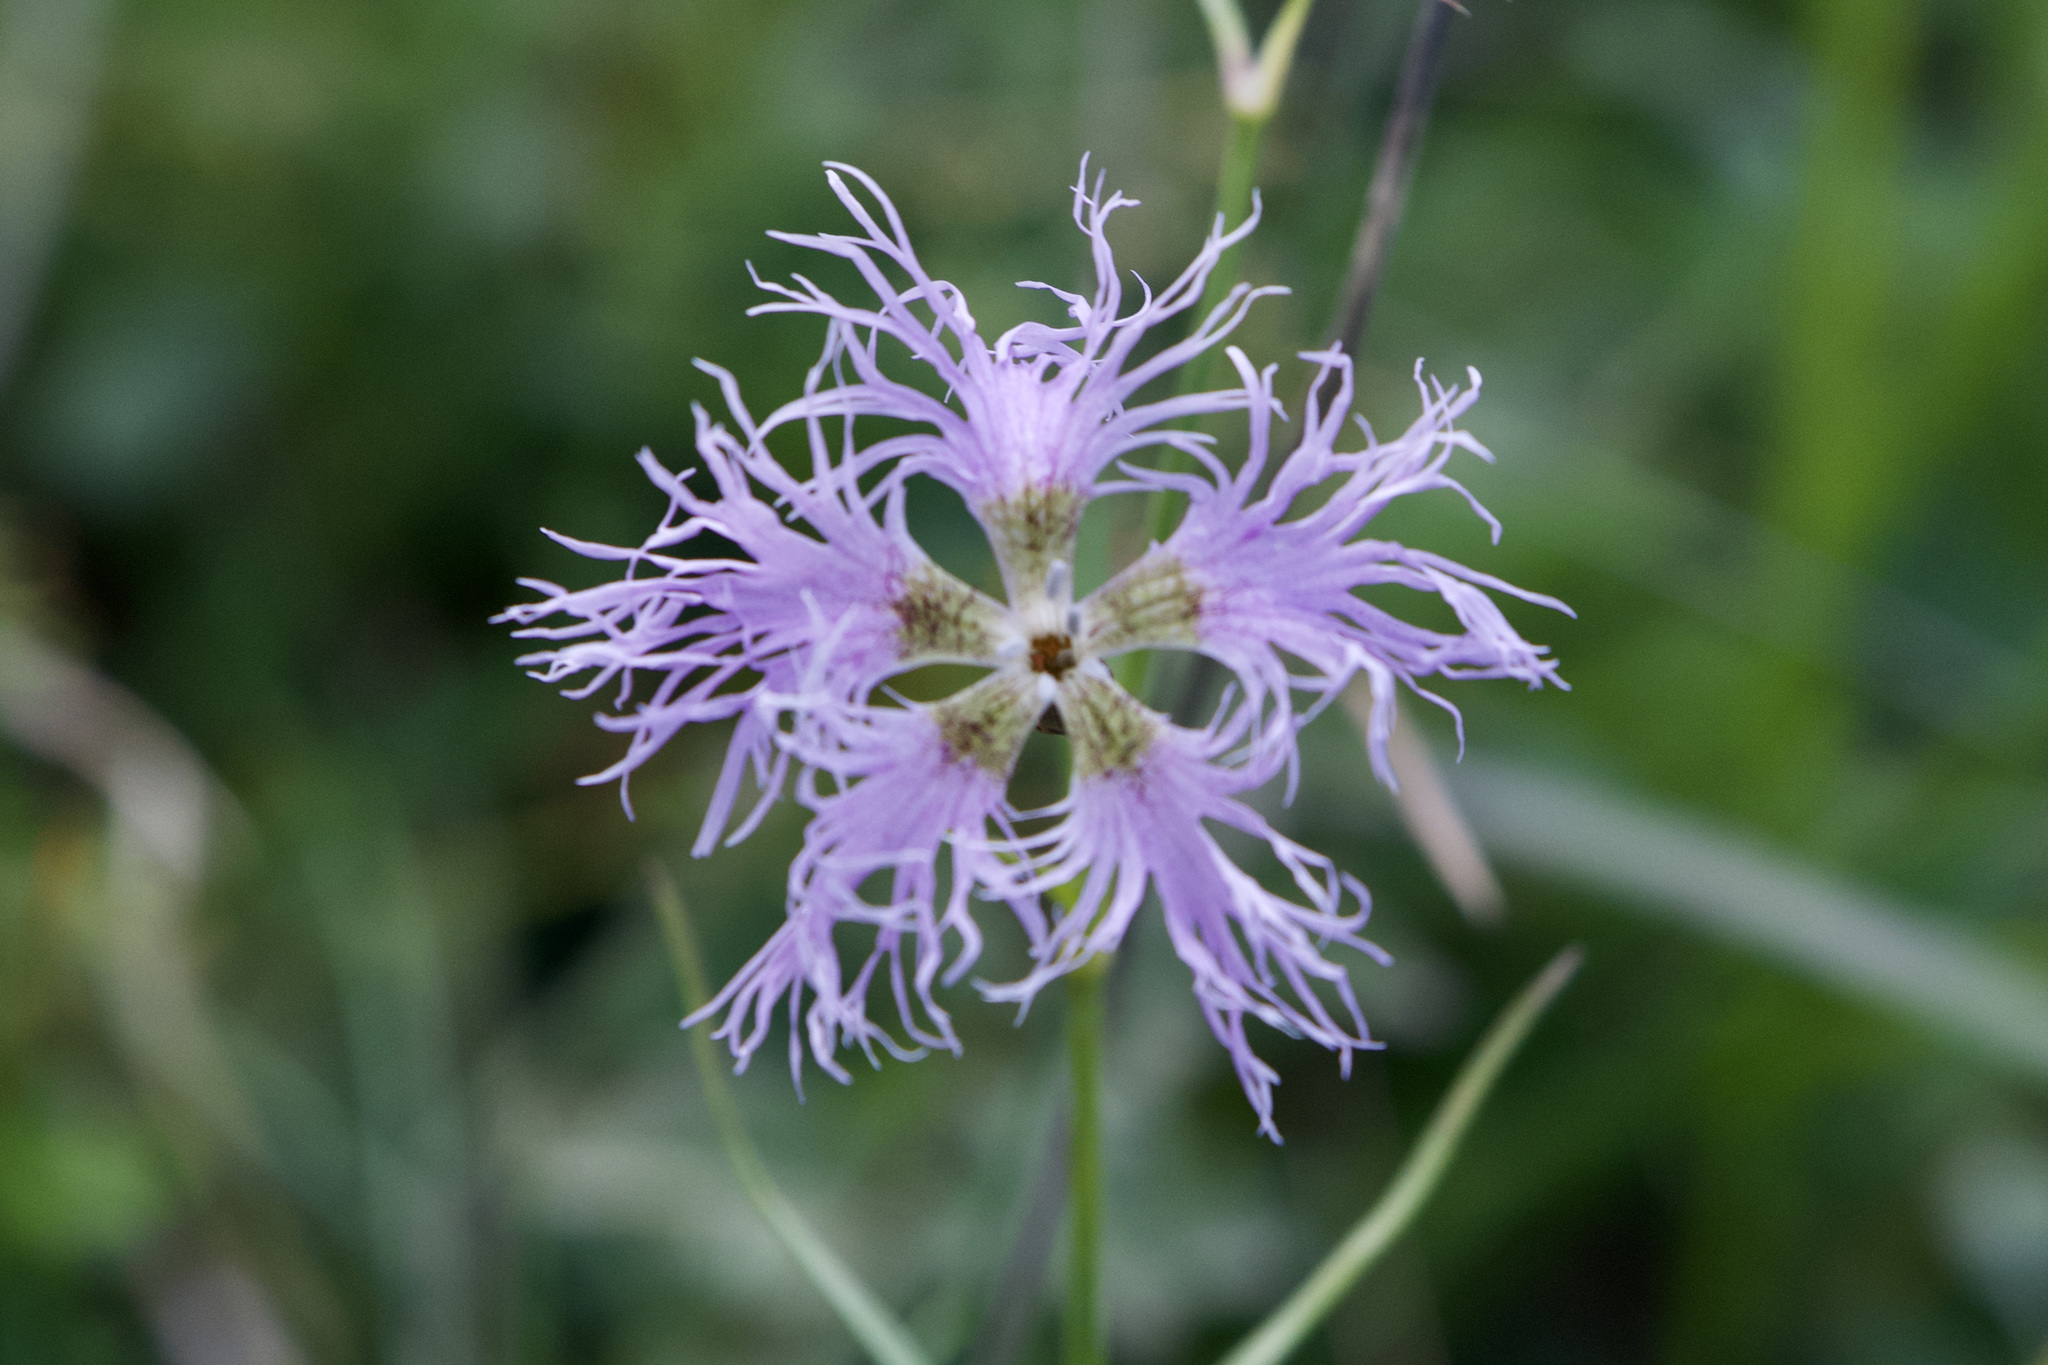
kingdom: Plantae
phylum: Tracheophyta
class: Magnoliopsida
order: Caryophyllales
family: Caryophyllaceae
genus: Dianthus
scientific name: Dianthus superbus
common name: Fringed pink
